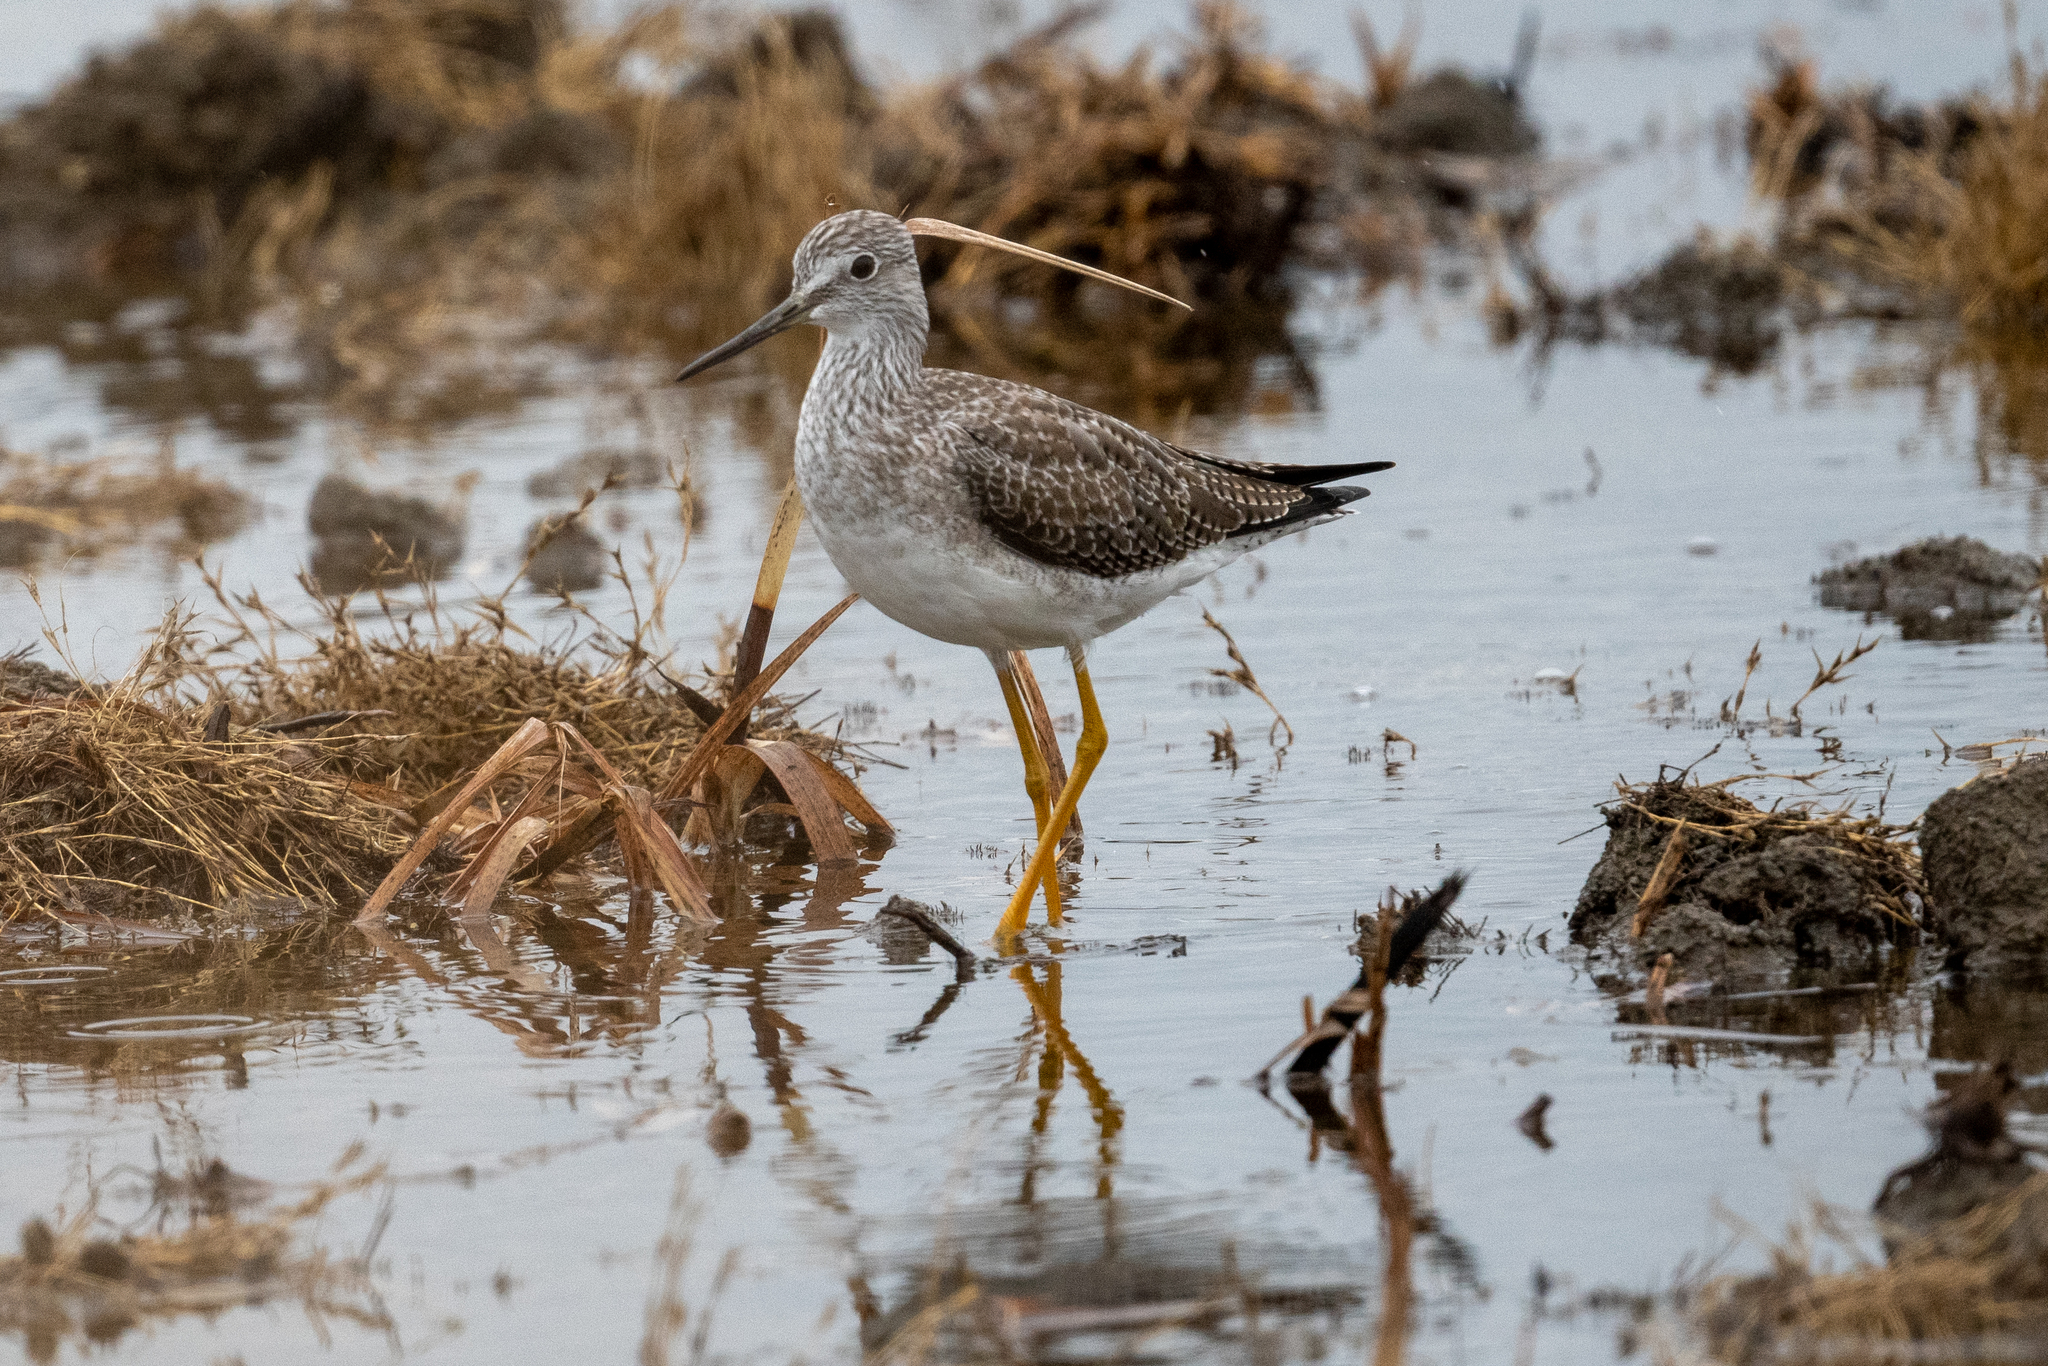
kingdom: Animalia
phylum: Chordata
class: Aves
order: Charadriiformes
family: Scolopacidae
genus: Tringa
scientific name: Tringa melanoleuca
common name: Greater yellowlegs
